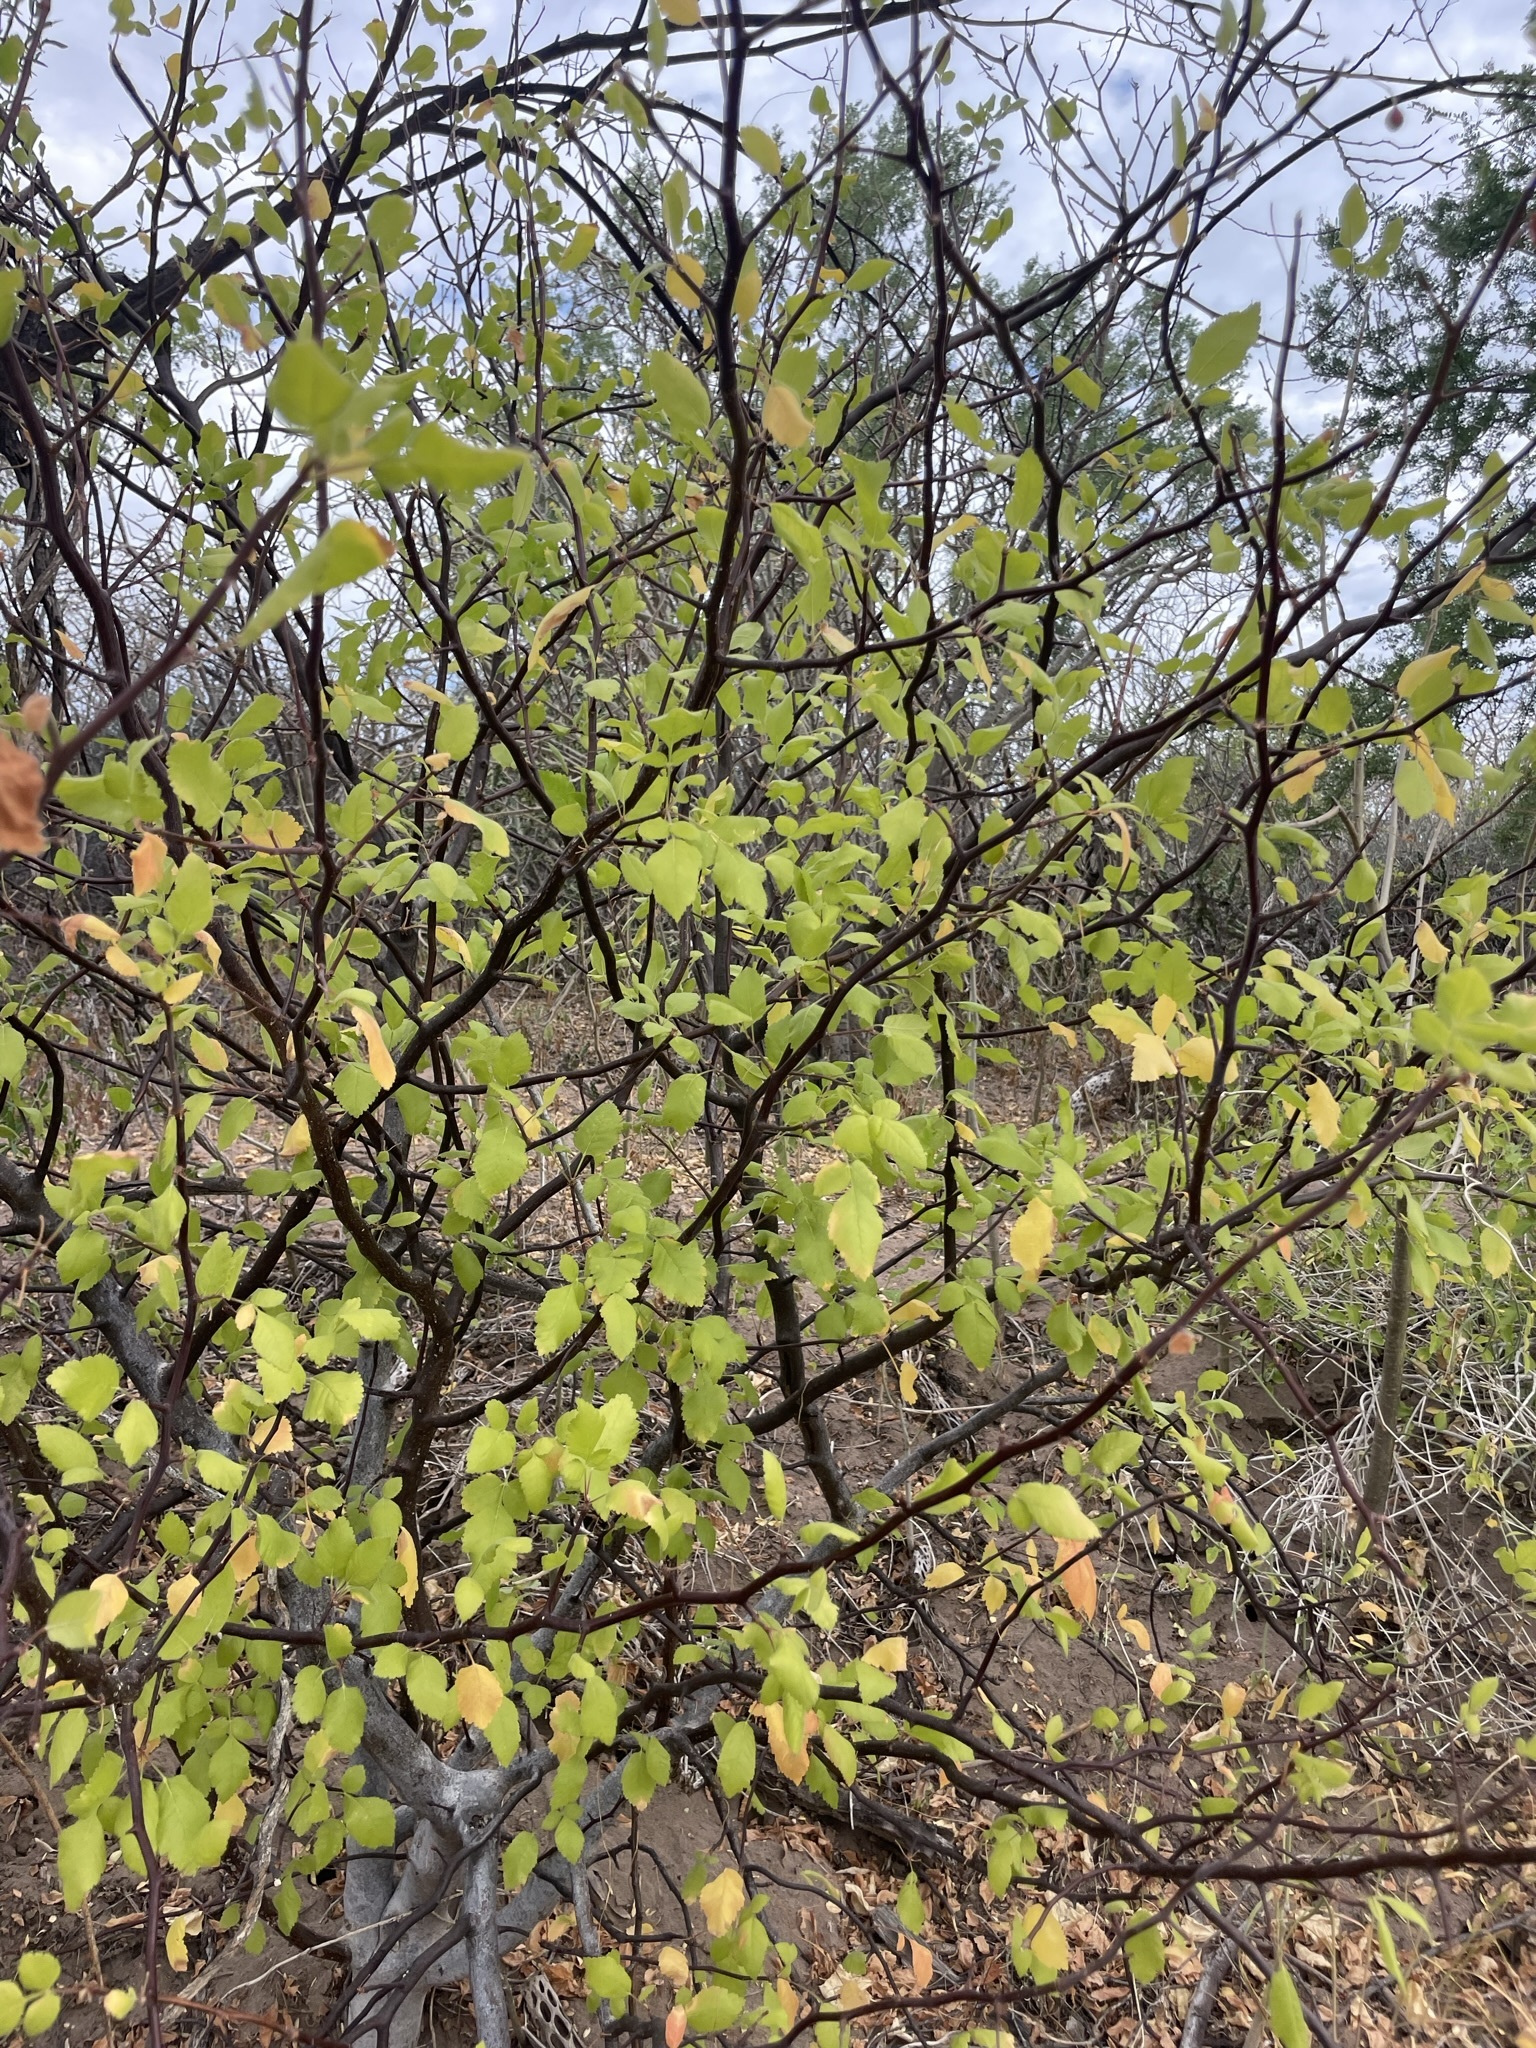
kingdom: Plantae
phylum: Tracheophyta
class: Magnoliopsida
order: Sapindales
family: Burseraceae
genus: Bursera
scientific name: Bursera epinnata
